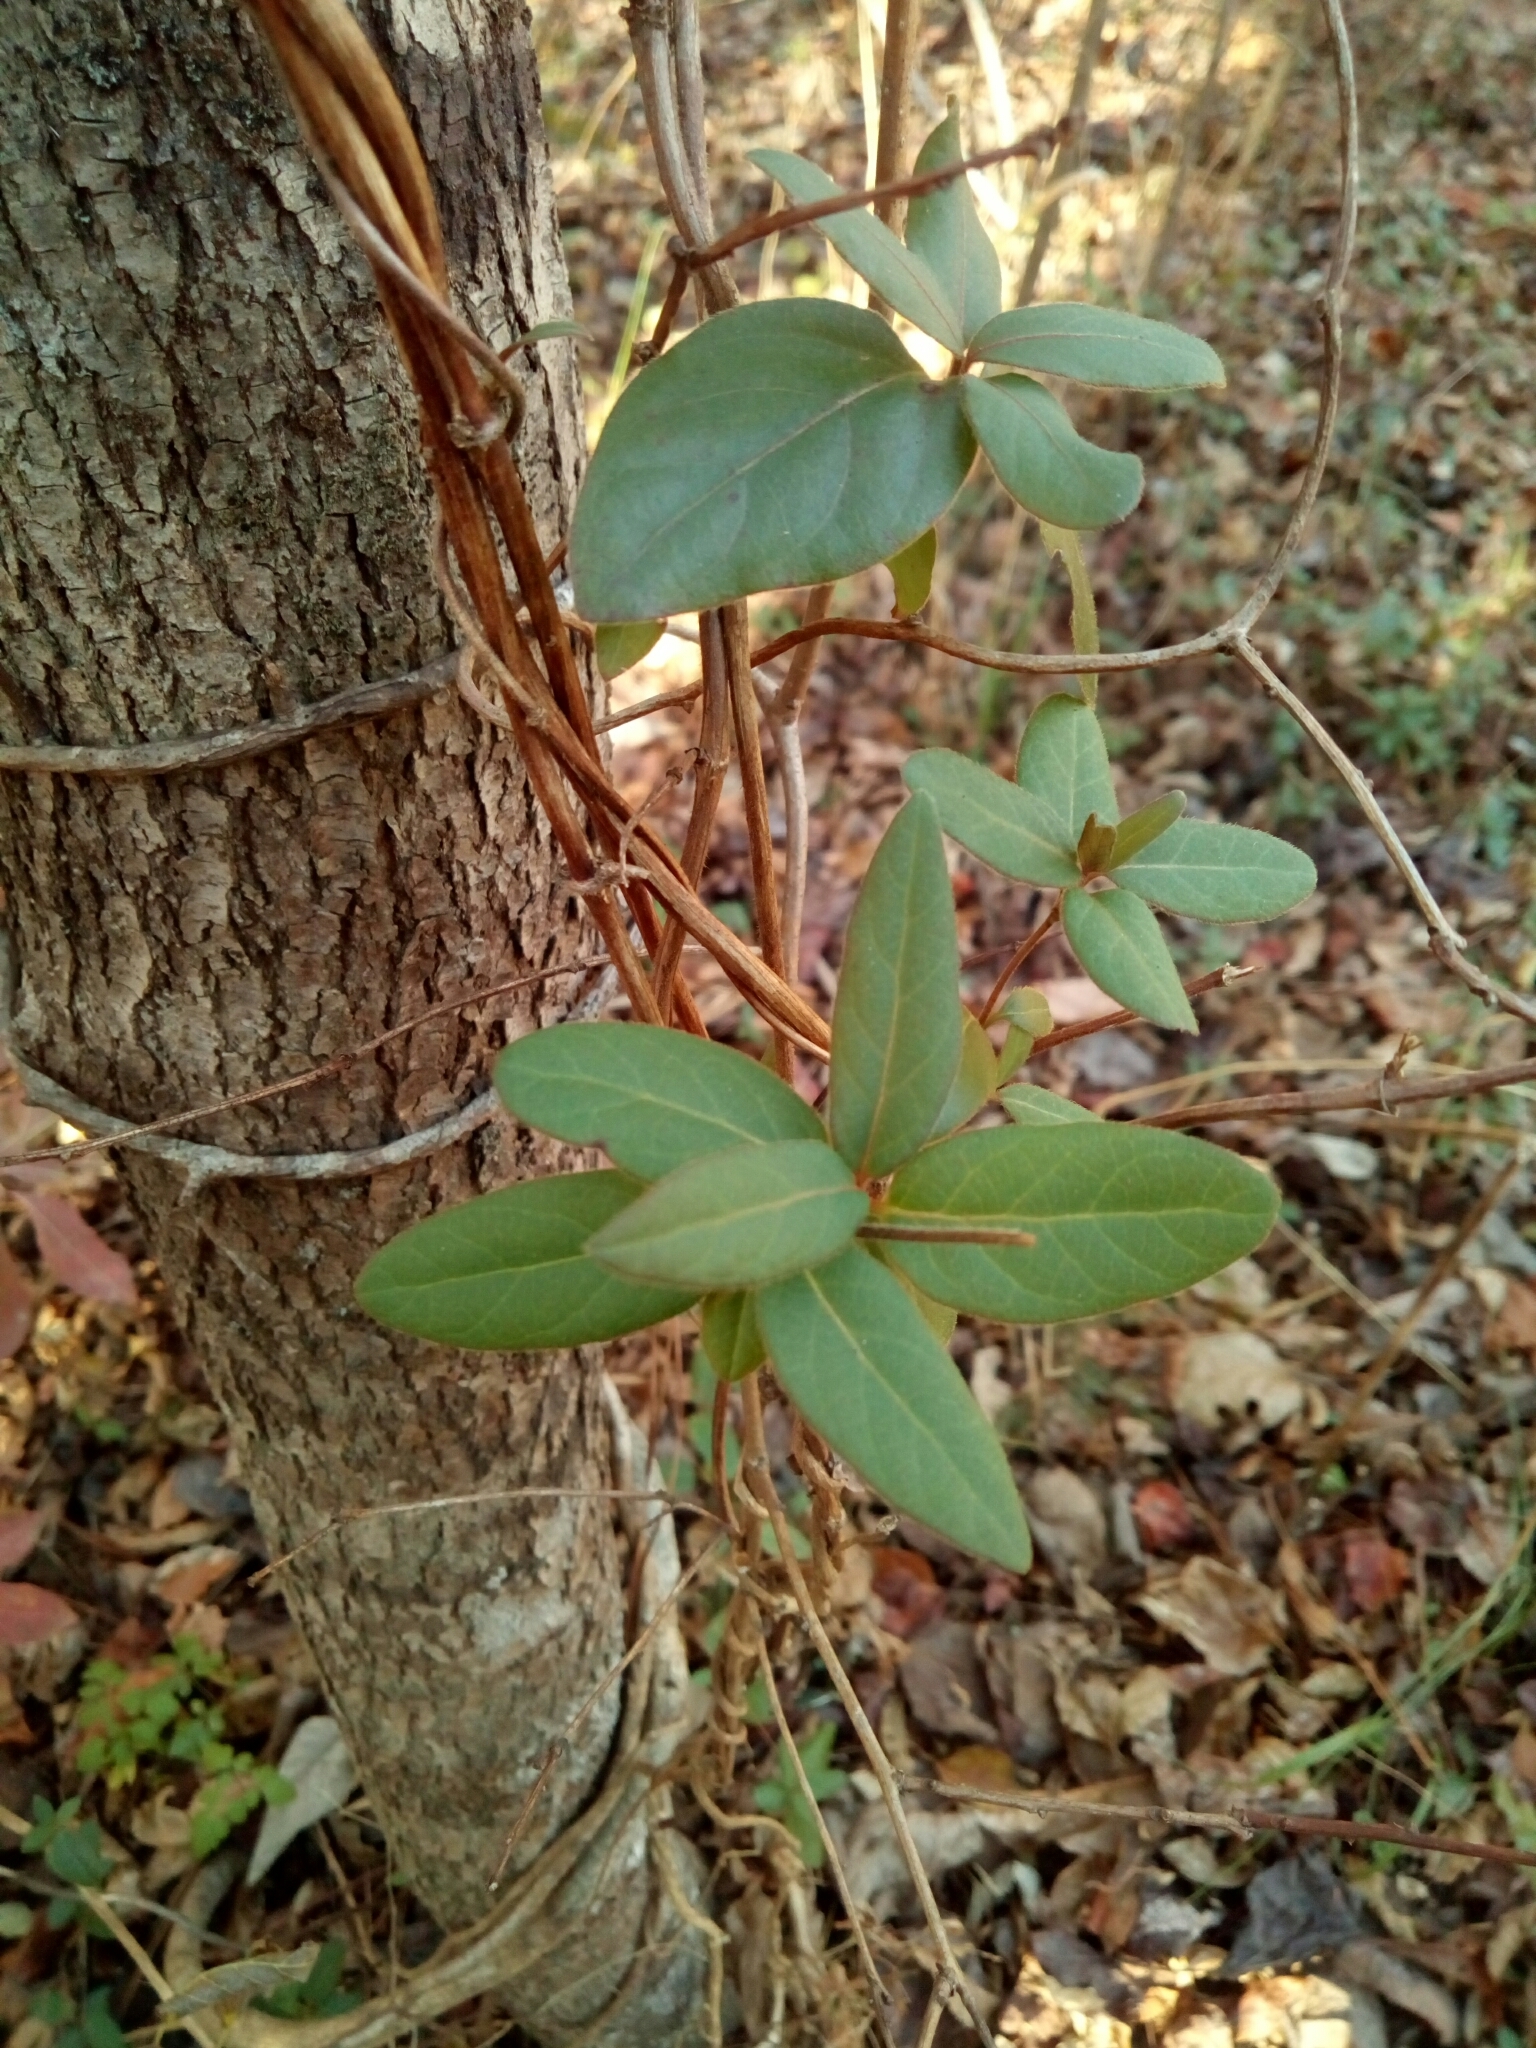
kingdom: Plantae
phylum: Tracheophyta
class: Magnoliopsida
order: Dipsacales
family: Caprifoliaceae
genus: Lonicera
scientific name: Lonicera japonica
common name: Japanese honeysuckle
